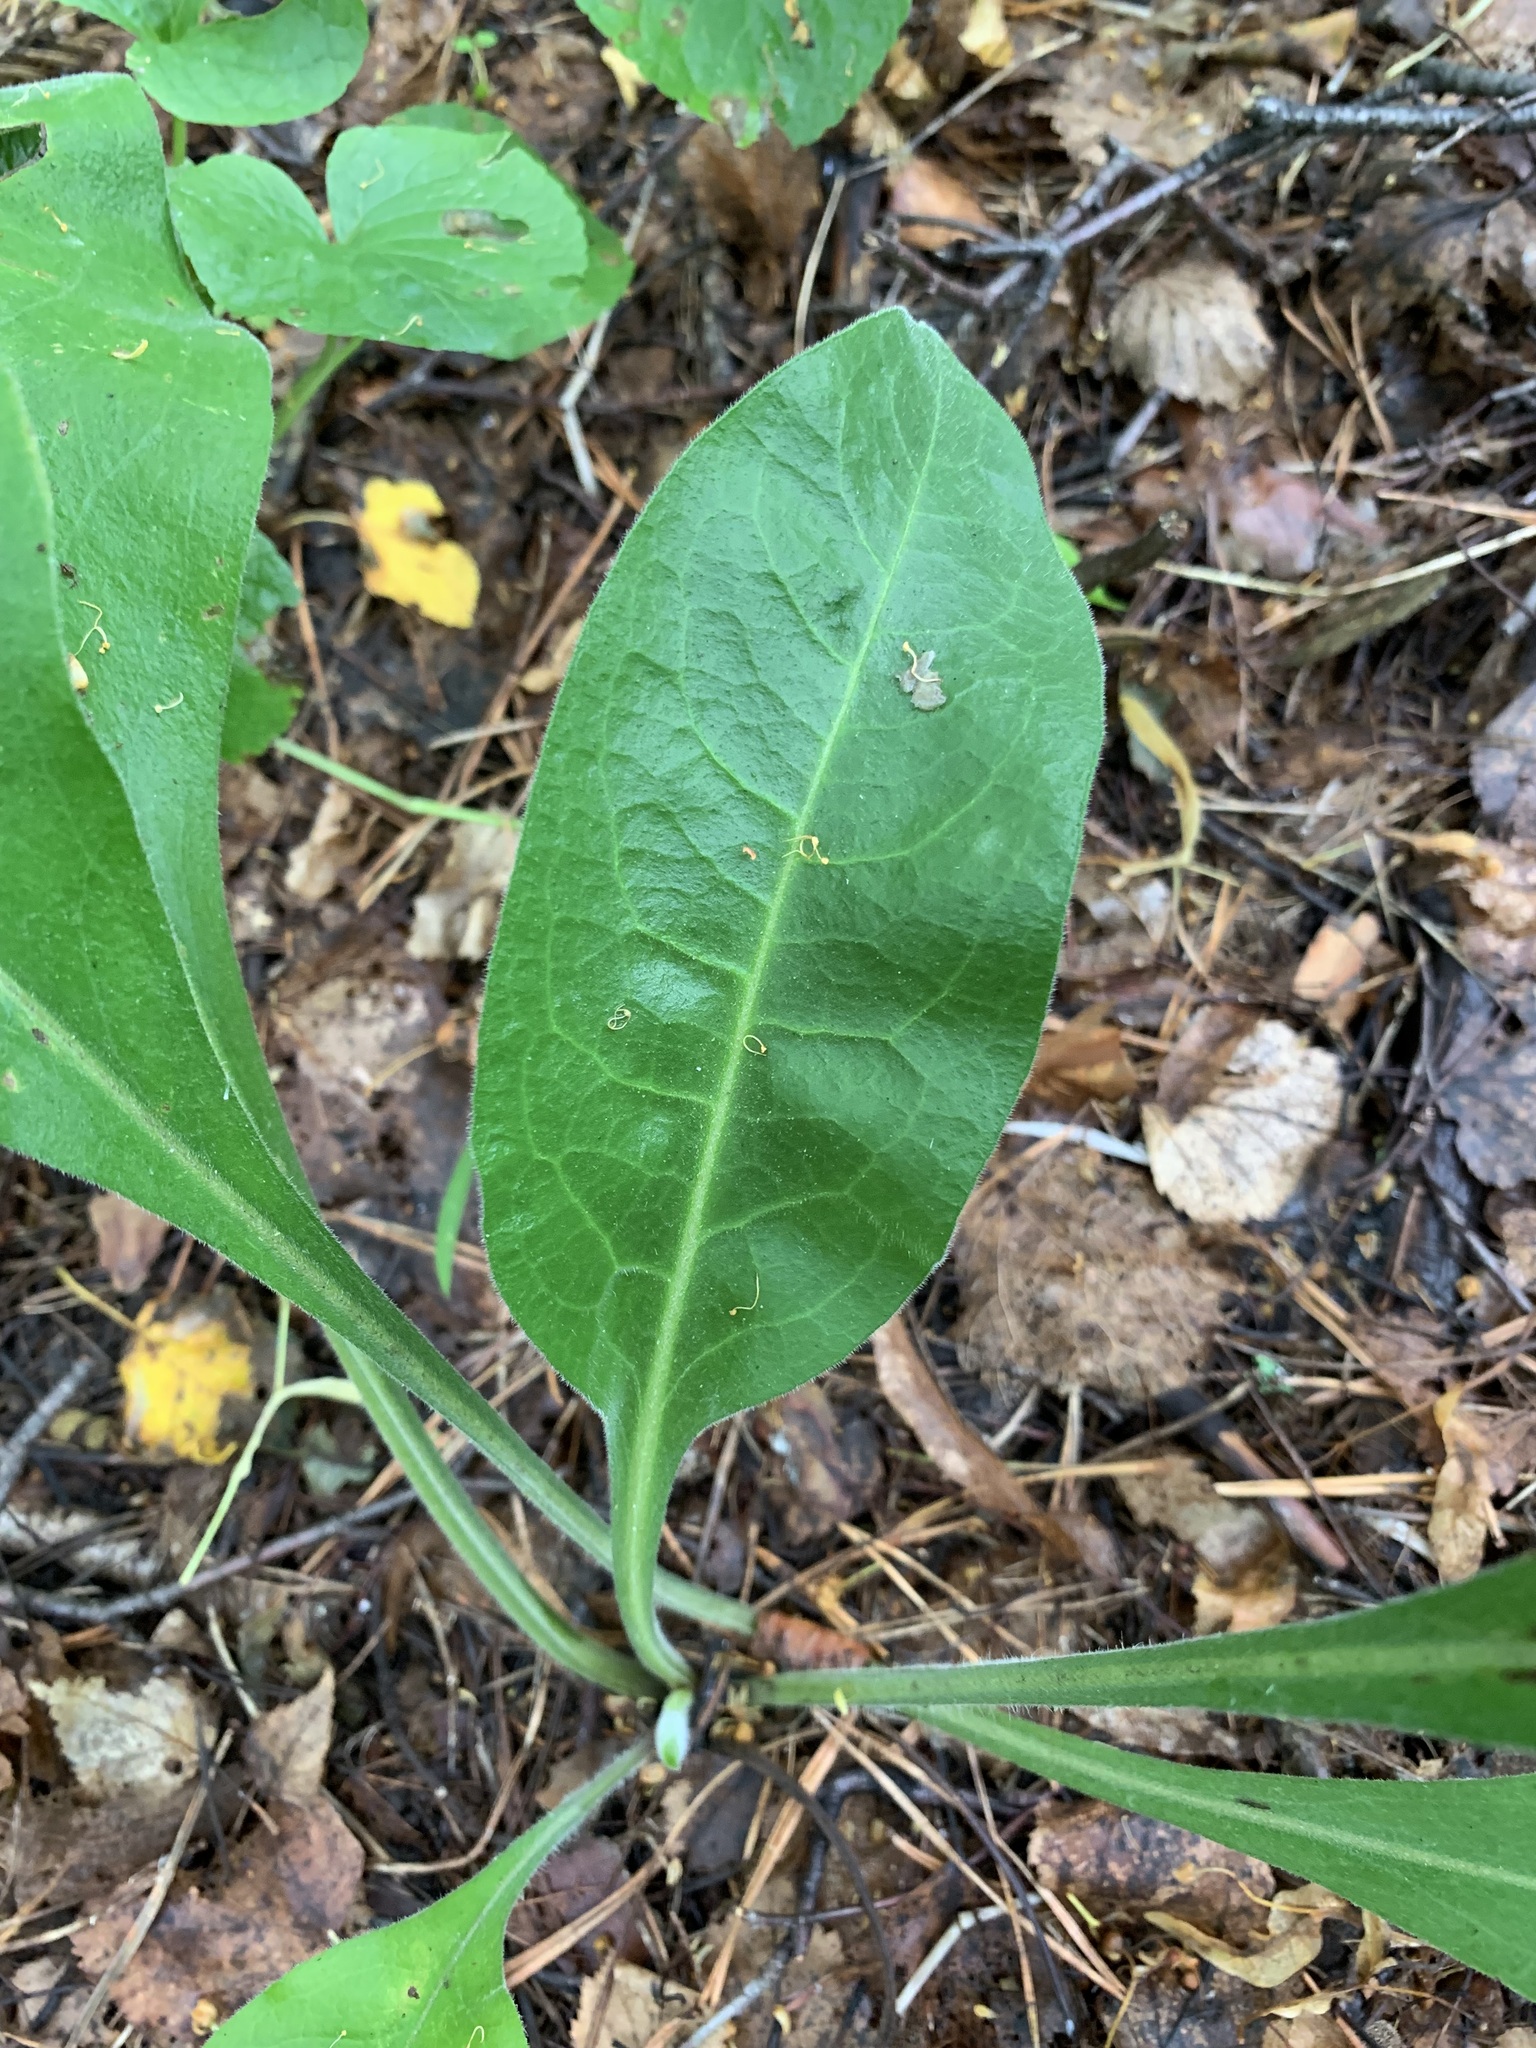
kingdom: Plantae
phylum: Tracheophyta
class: Magnoliopsida
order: Boraginales
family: Boraginaceae
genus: Pulmonaria
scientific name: Pulmonaria mollis
